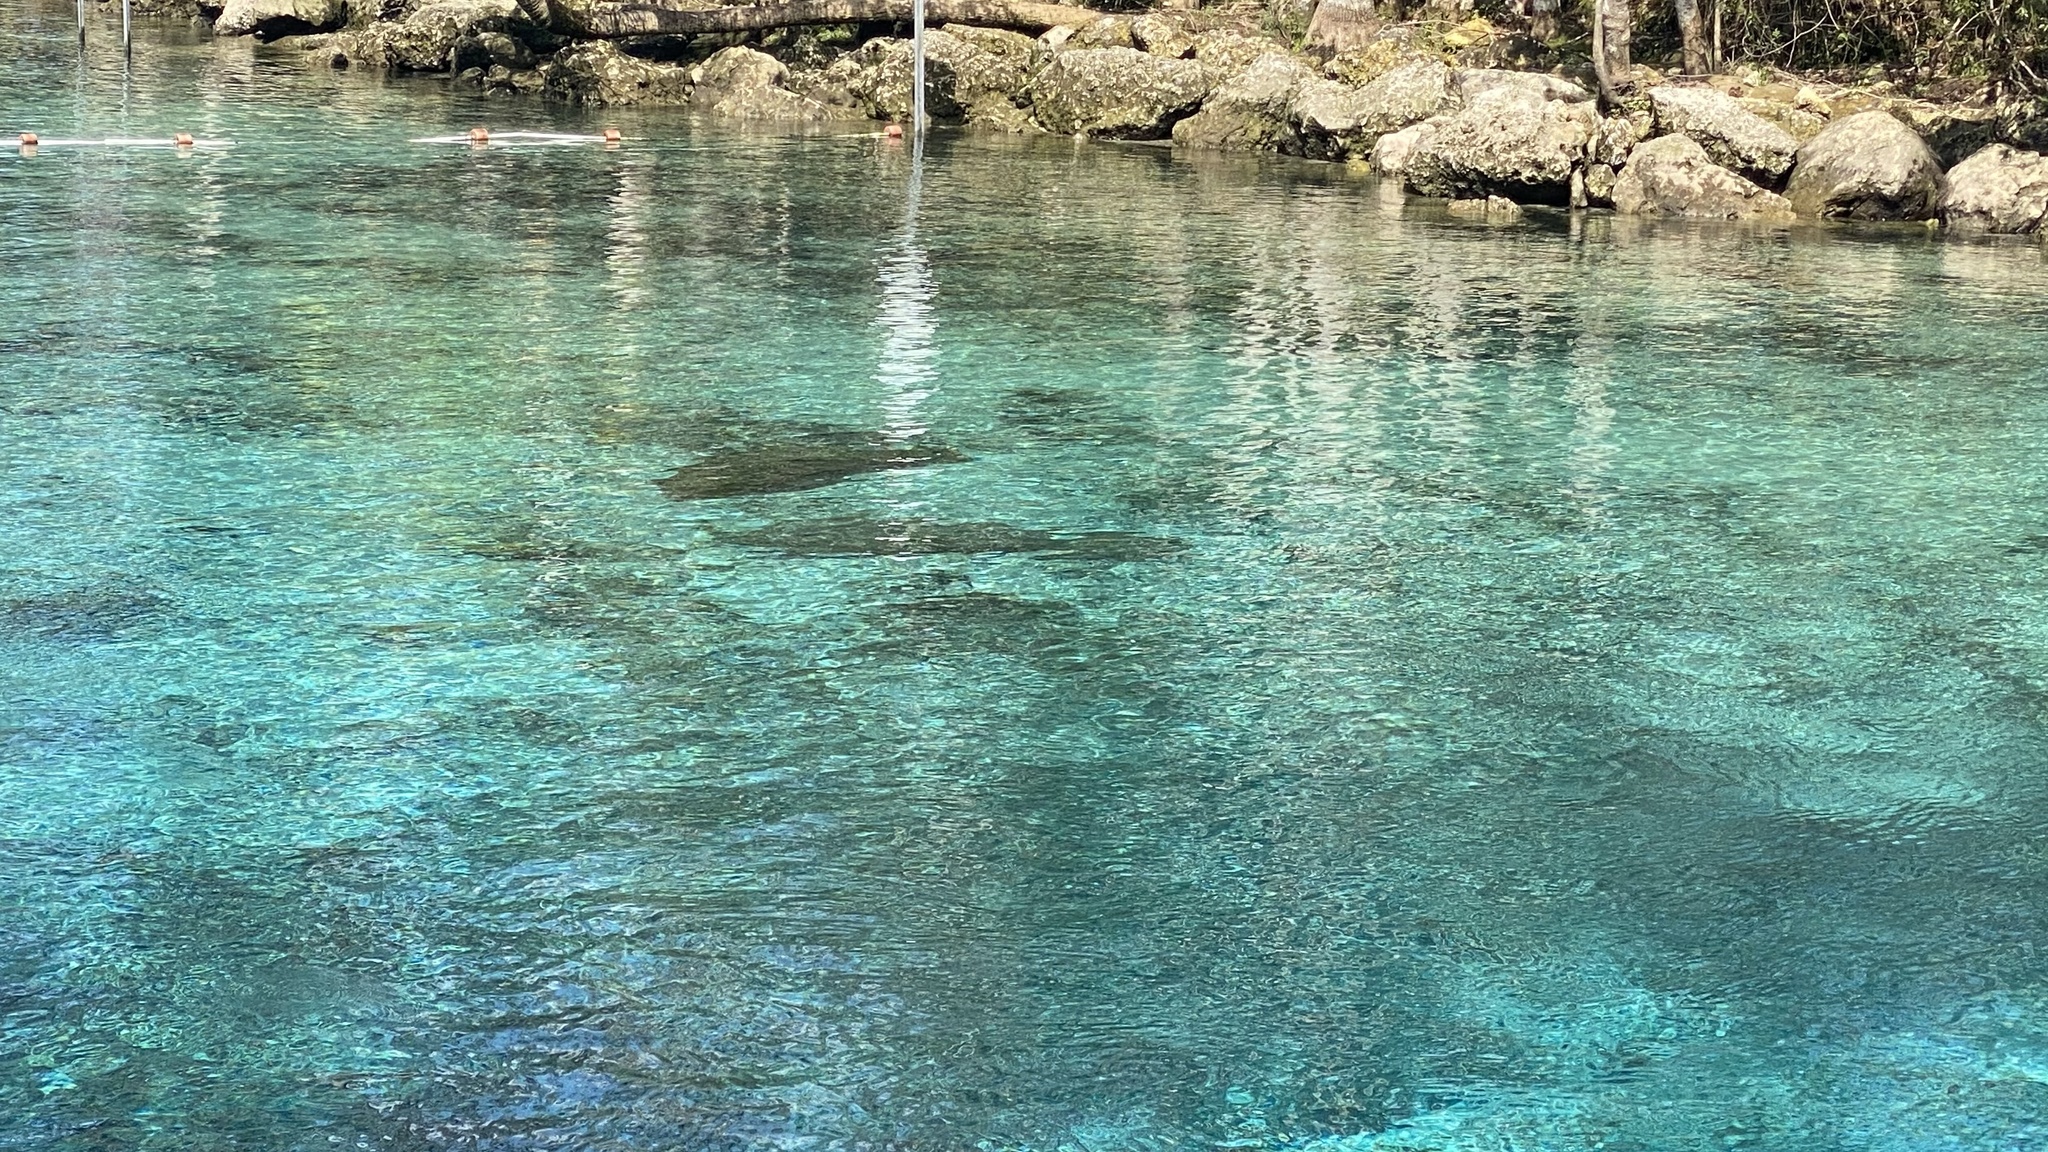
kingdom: Animalia
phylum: Chordata
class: Mammalia
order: Sirenia
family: Trichechidae
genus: Trichechus
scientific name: Trichechus manatus
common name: West indian manatee
